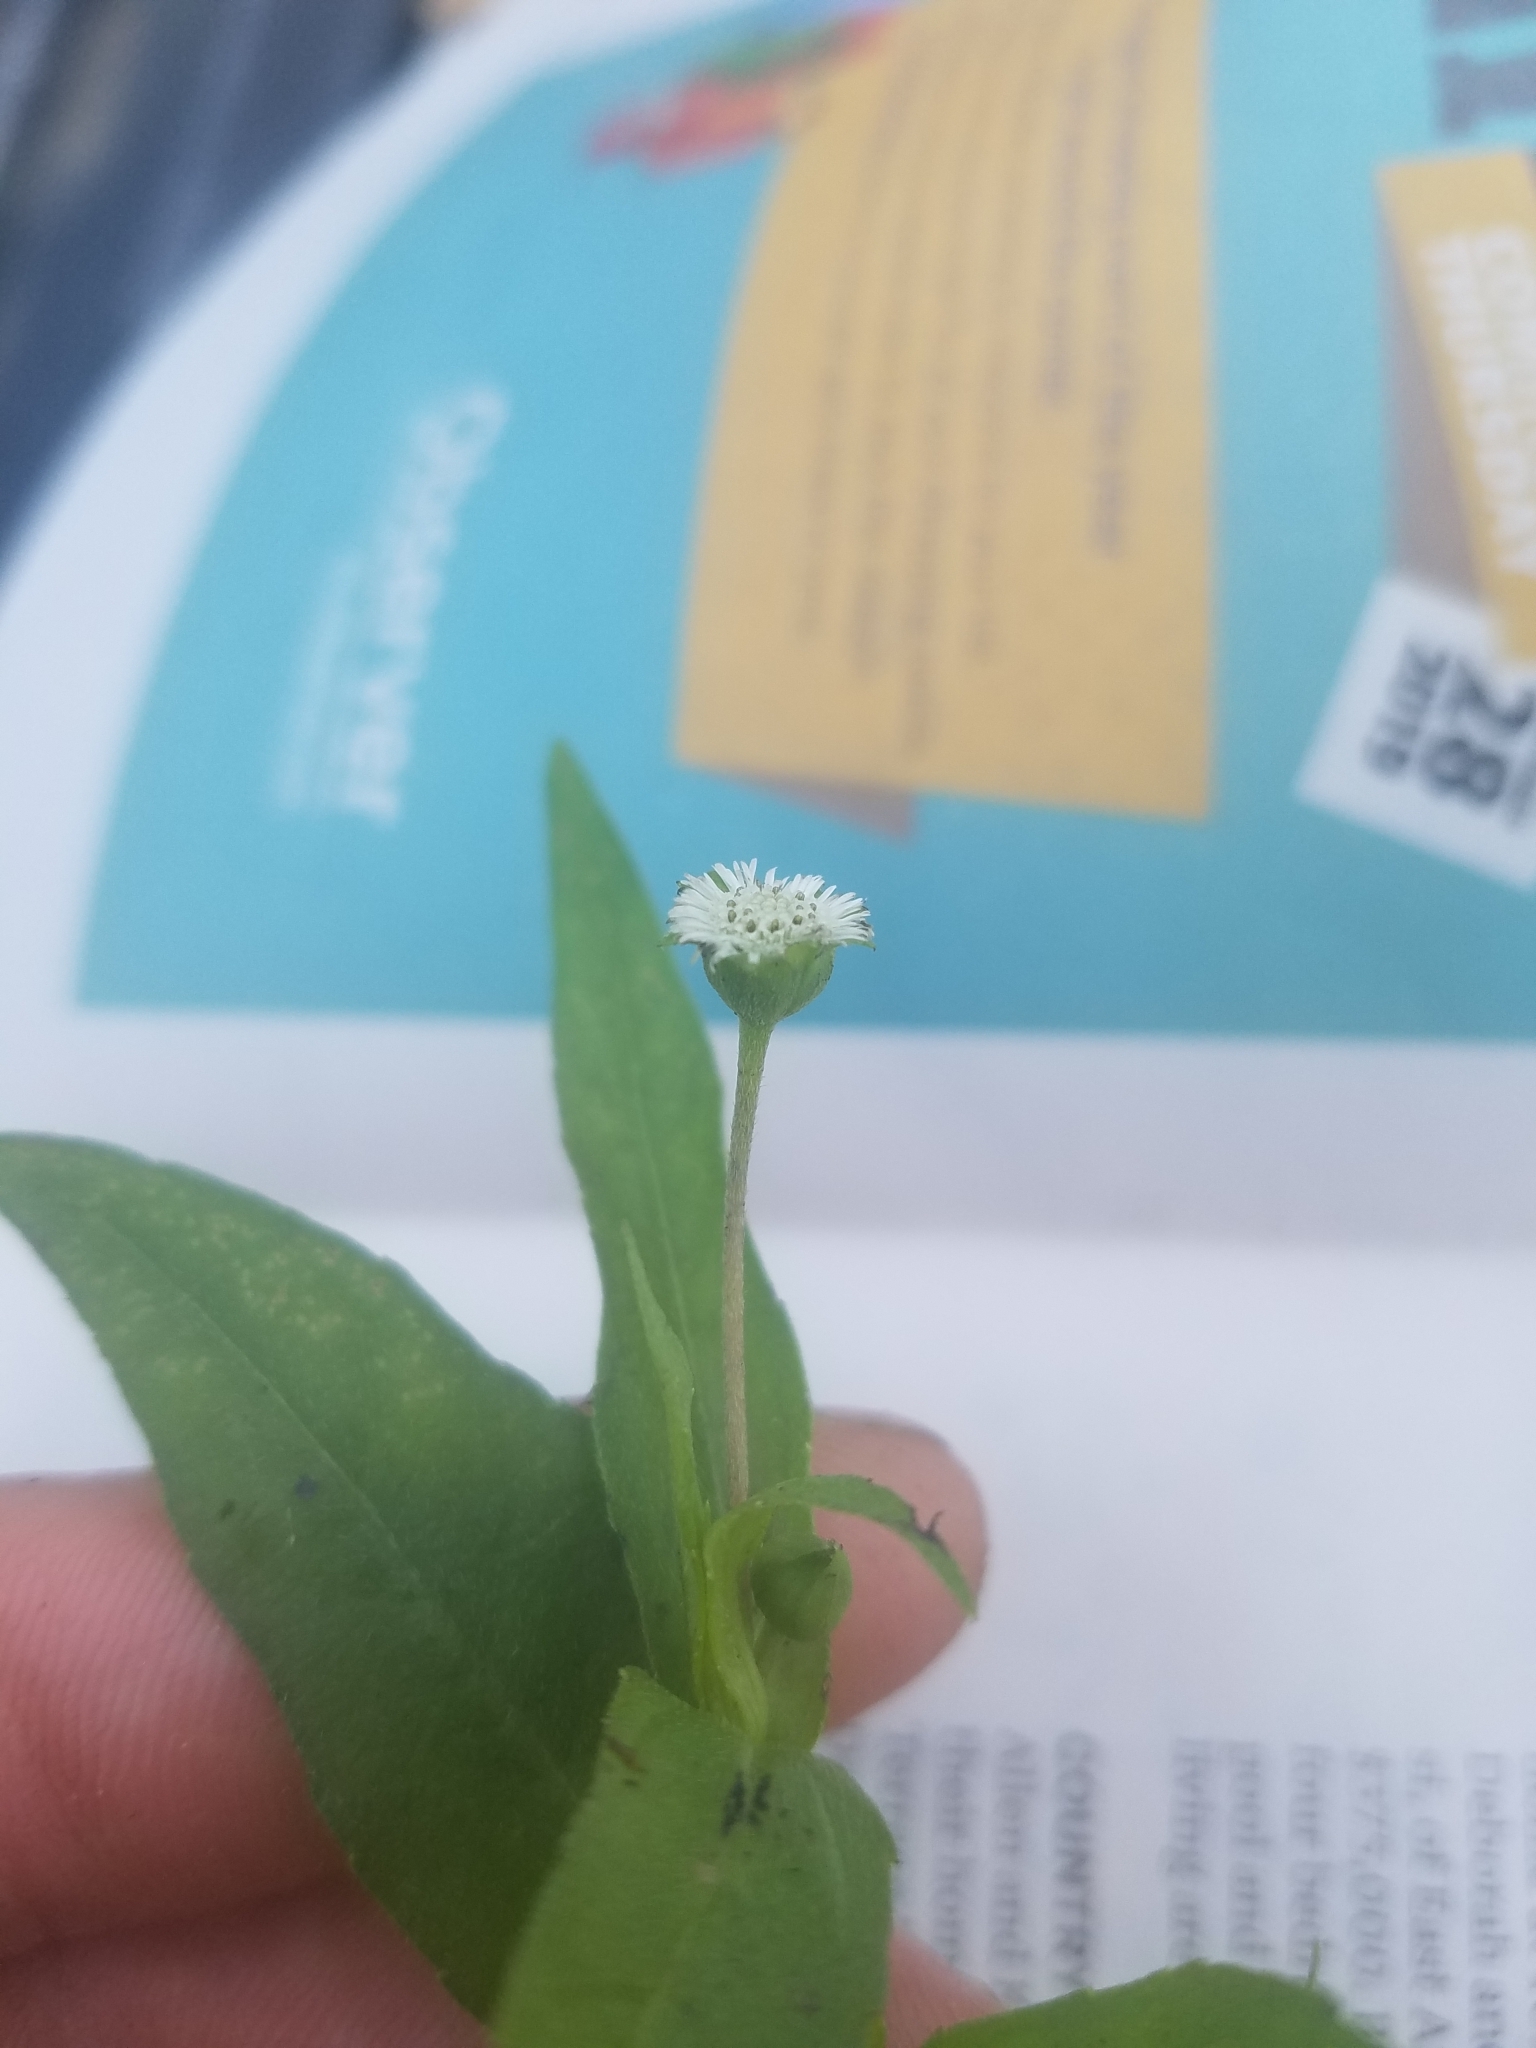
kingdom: Plantae
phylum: Tracheophyta
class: Magnoliopsida
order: Asterales
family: Asteraceae
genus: Eclipta
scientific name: Eclipta prostrata
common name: False daisy
